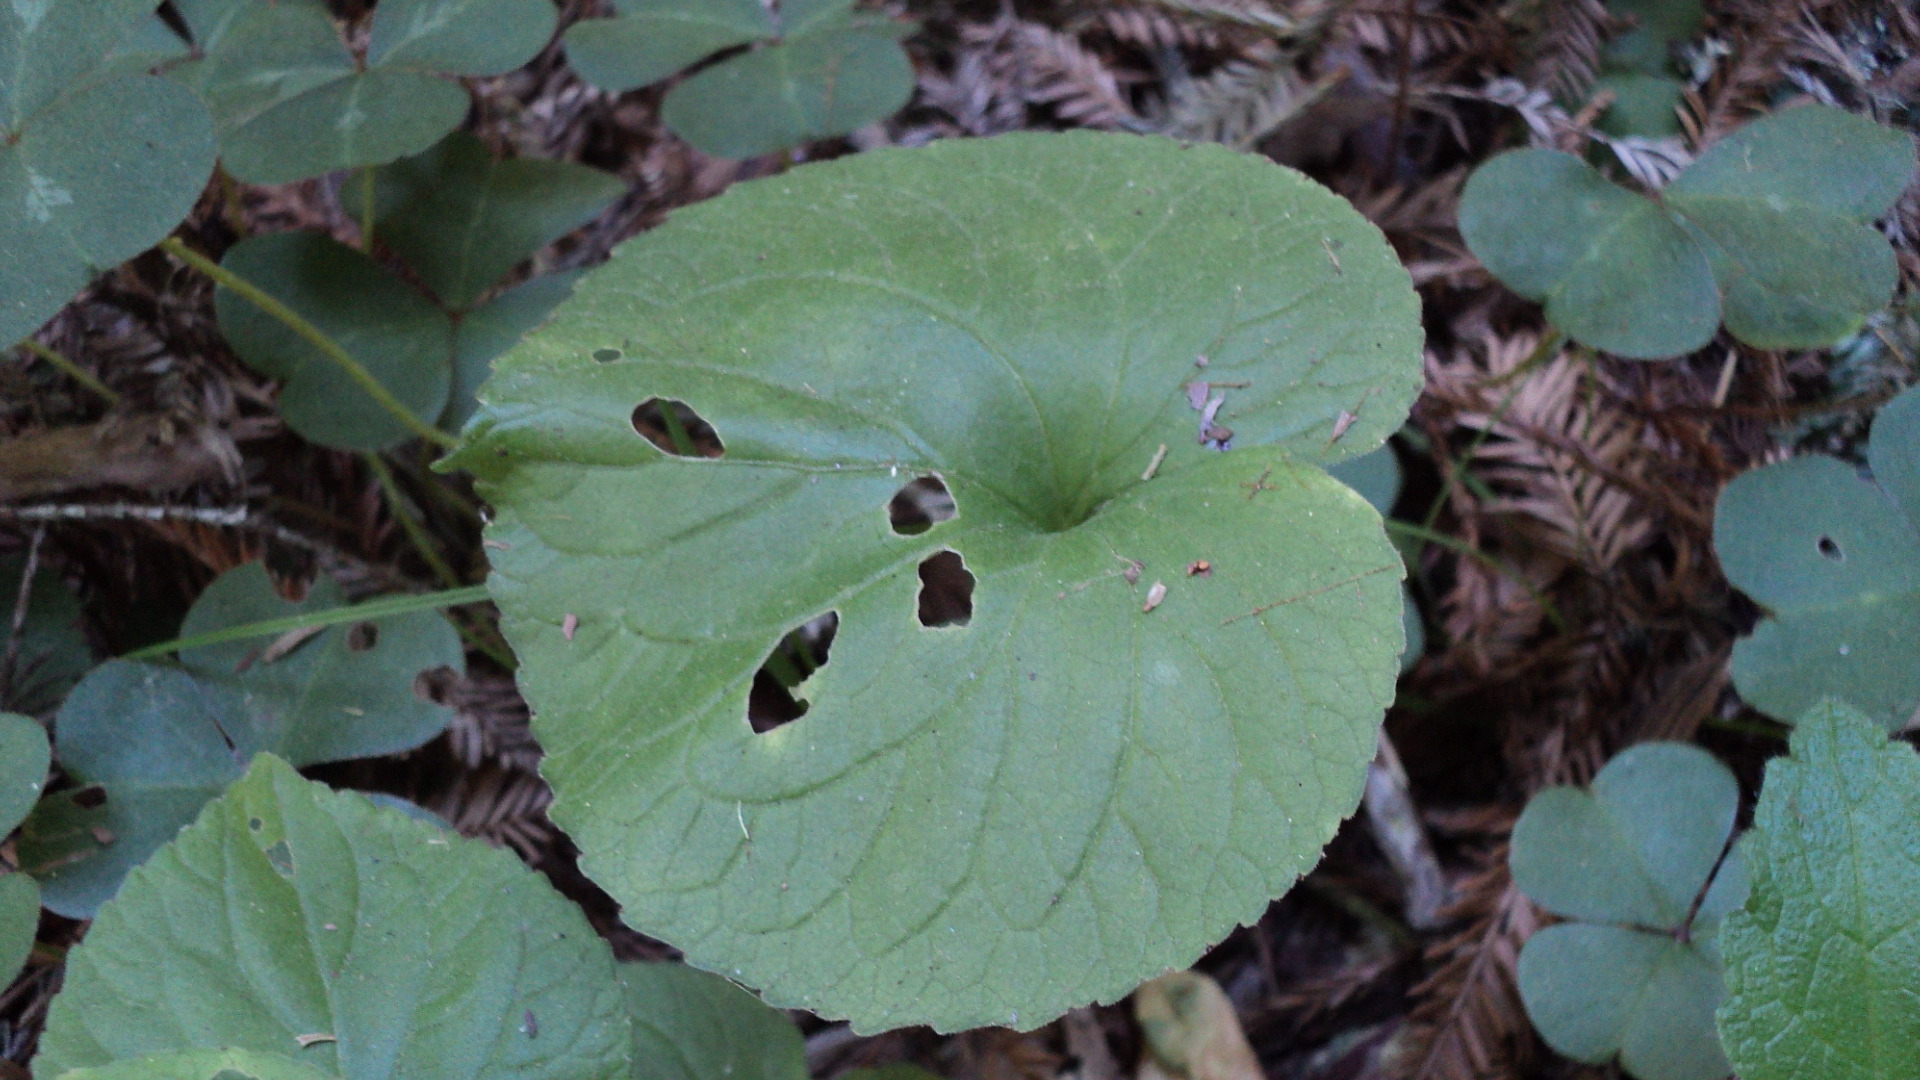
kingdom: Plantae
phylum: Tracheophyta
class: Magnoliopsida
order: Malpighiales
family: Violaceae
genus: Viola
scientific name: Viola glabella
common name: Stream violet
